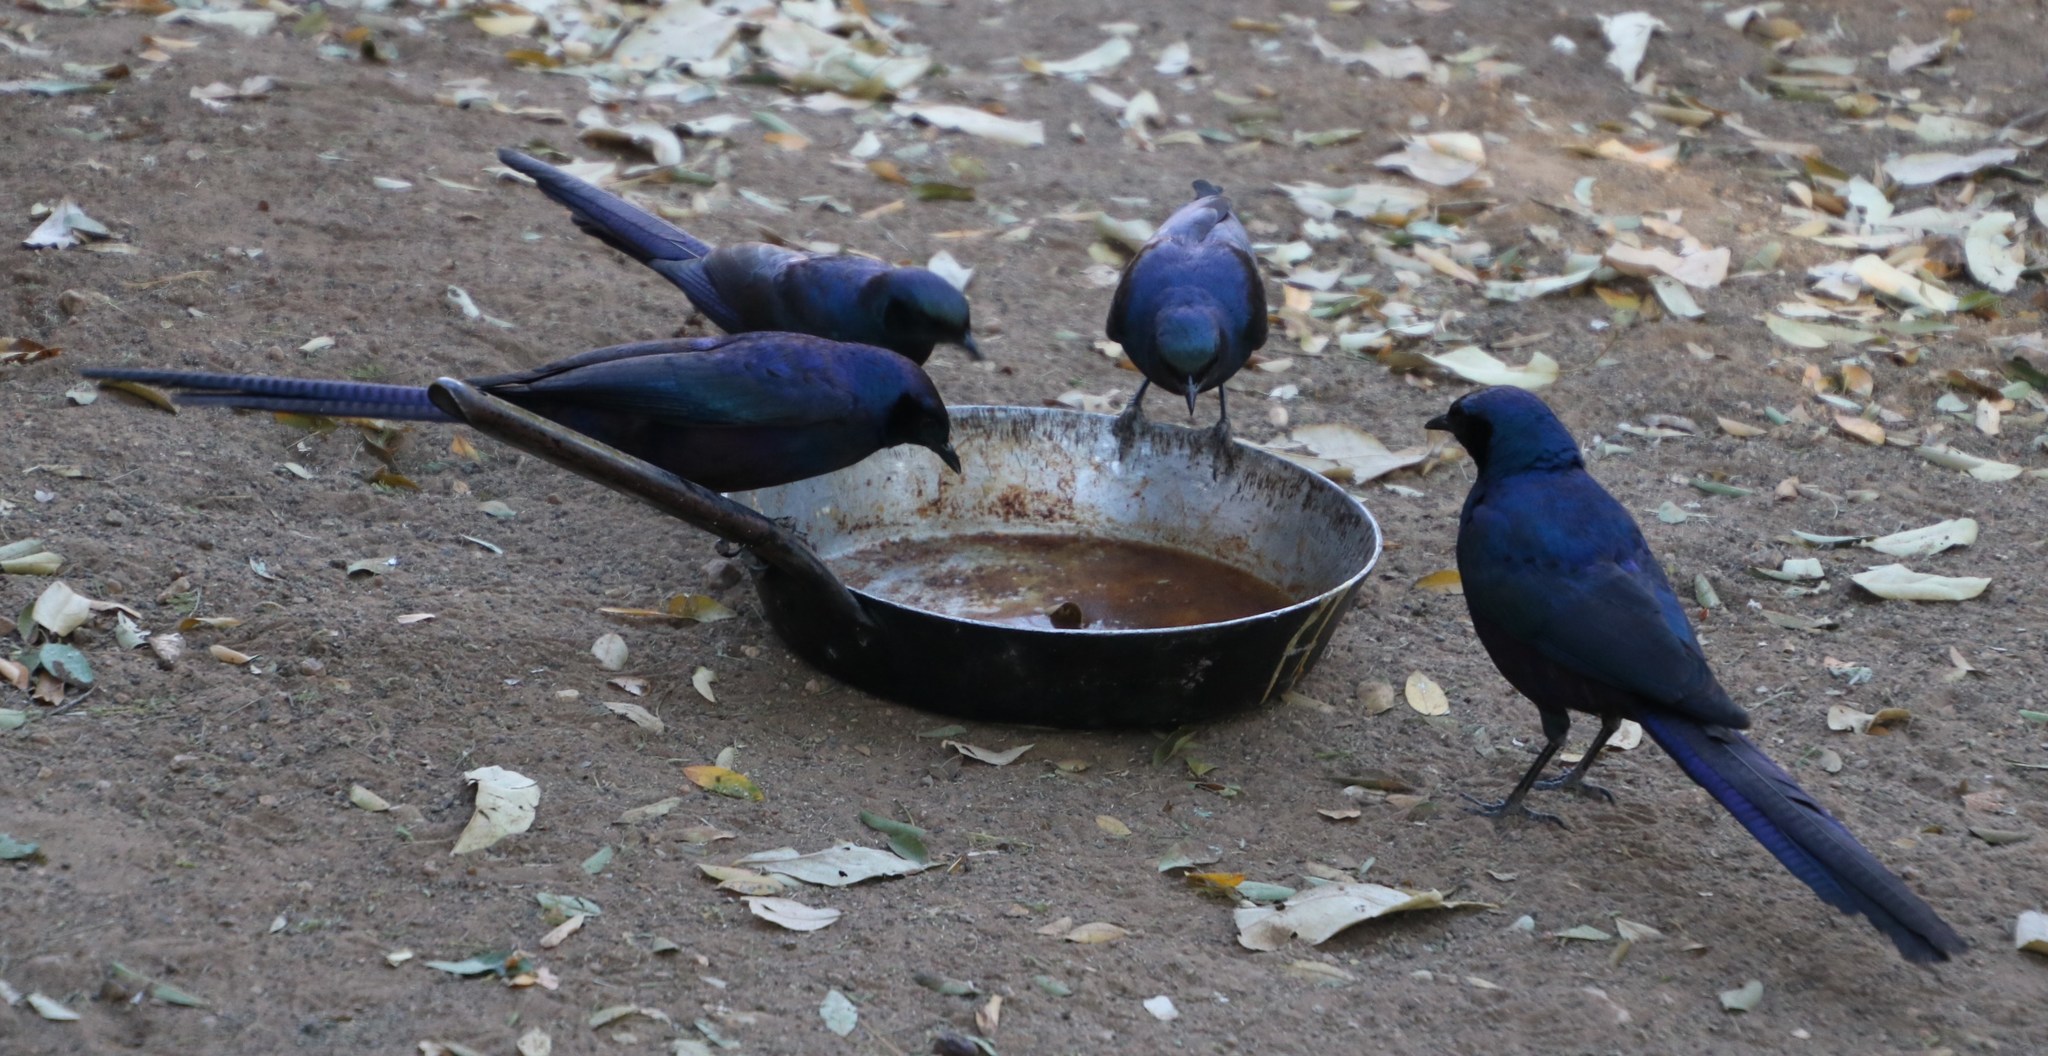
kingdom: Animalia
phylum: Chordata
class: Aves
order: Passeriformes
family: Sturnidae
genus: Lamprotornis
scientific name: Lamprotornis mevesii
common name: Meves's starling
